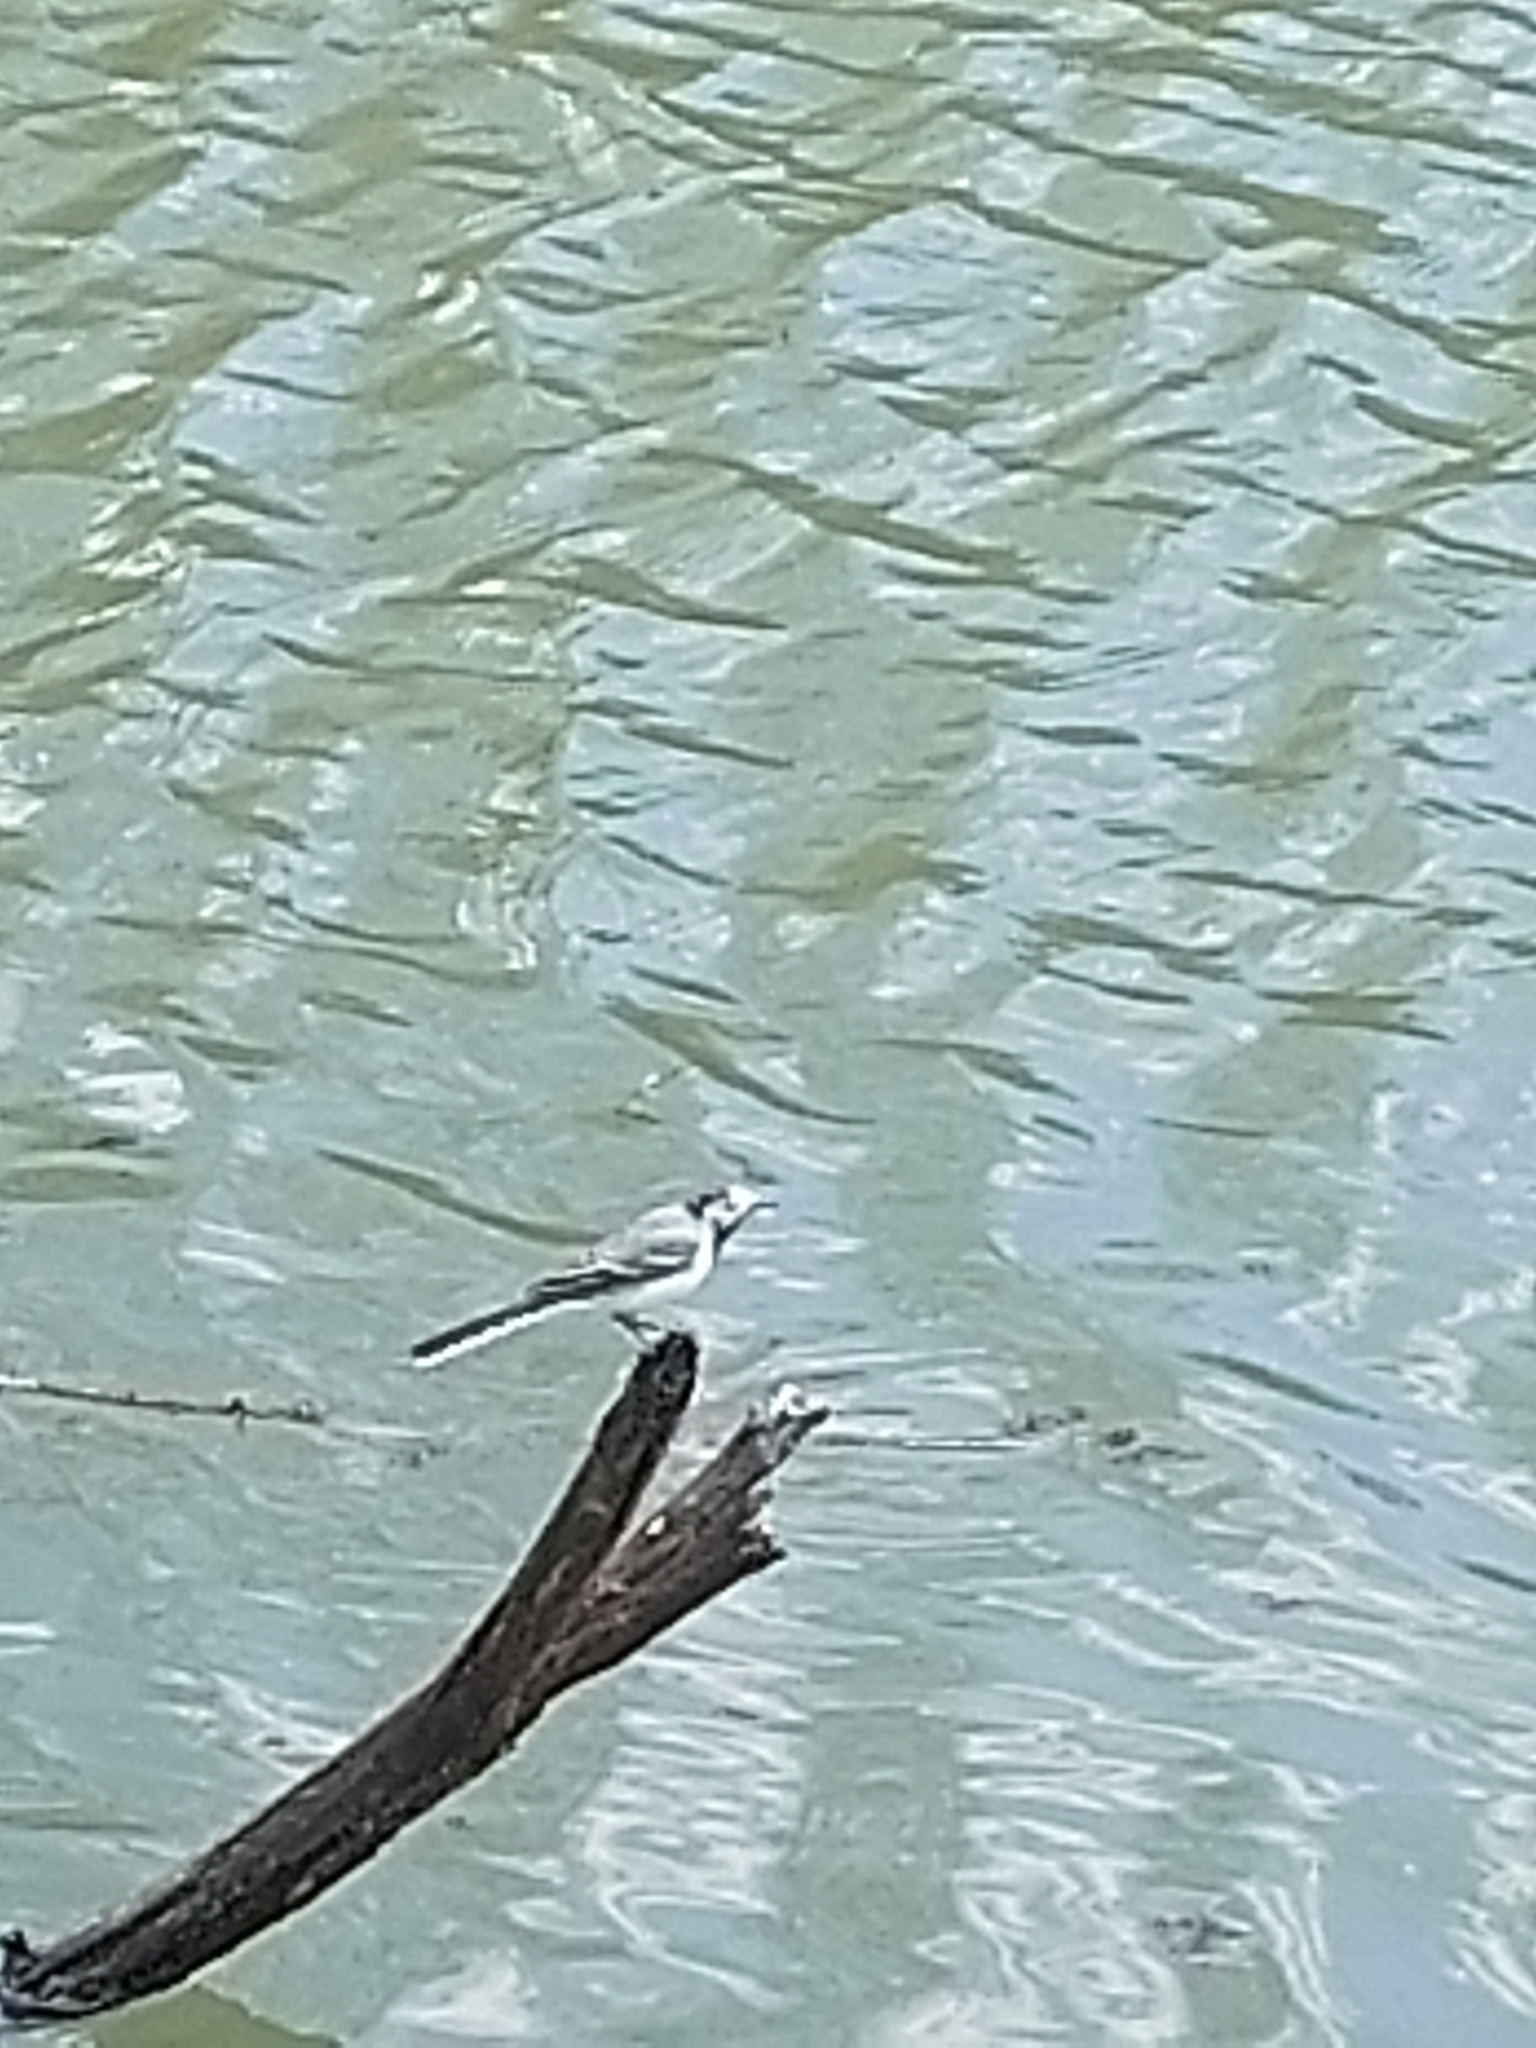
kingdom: Animalia
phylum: Chordata
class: Aves
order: Passeriformes
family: Motacillidae
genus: Motacilla
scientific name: Motacilla alba
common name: White wagtail
